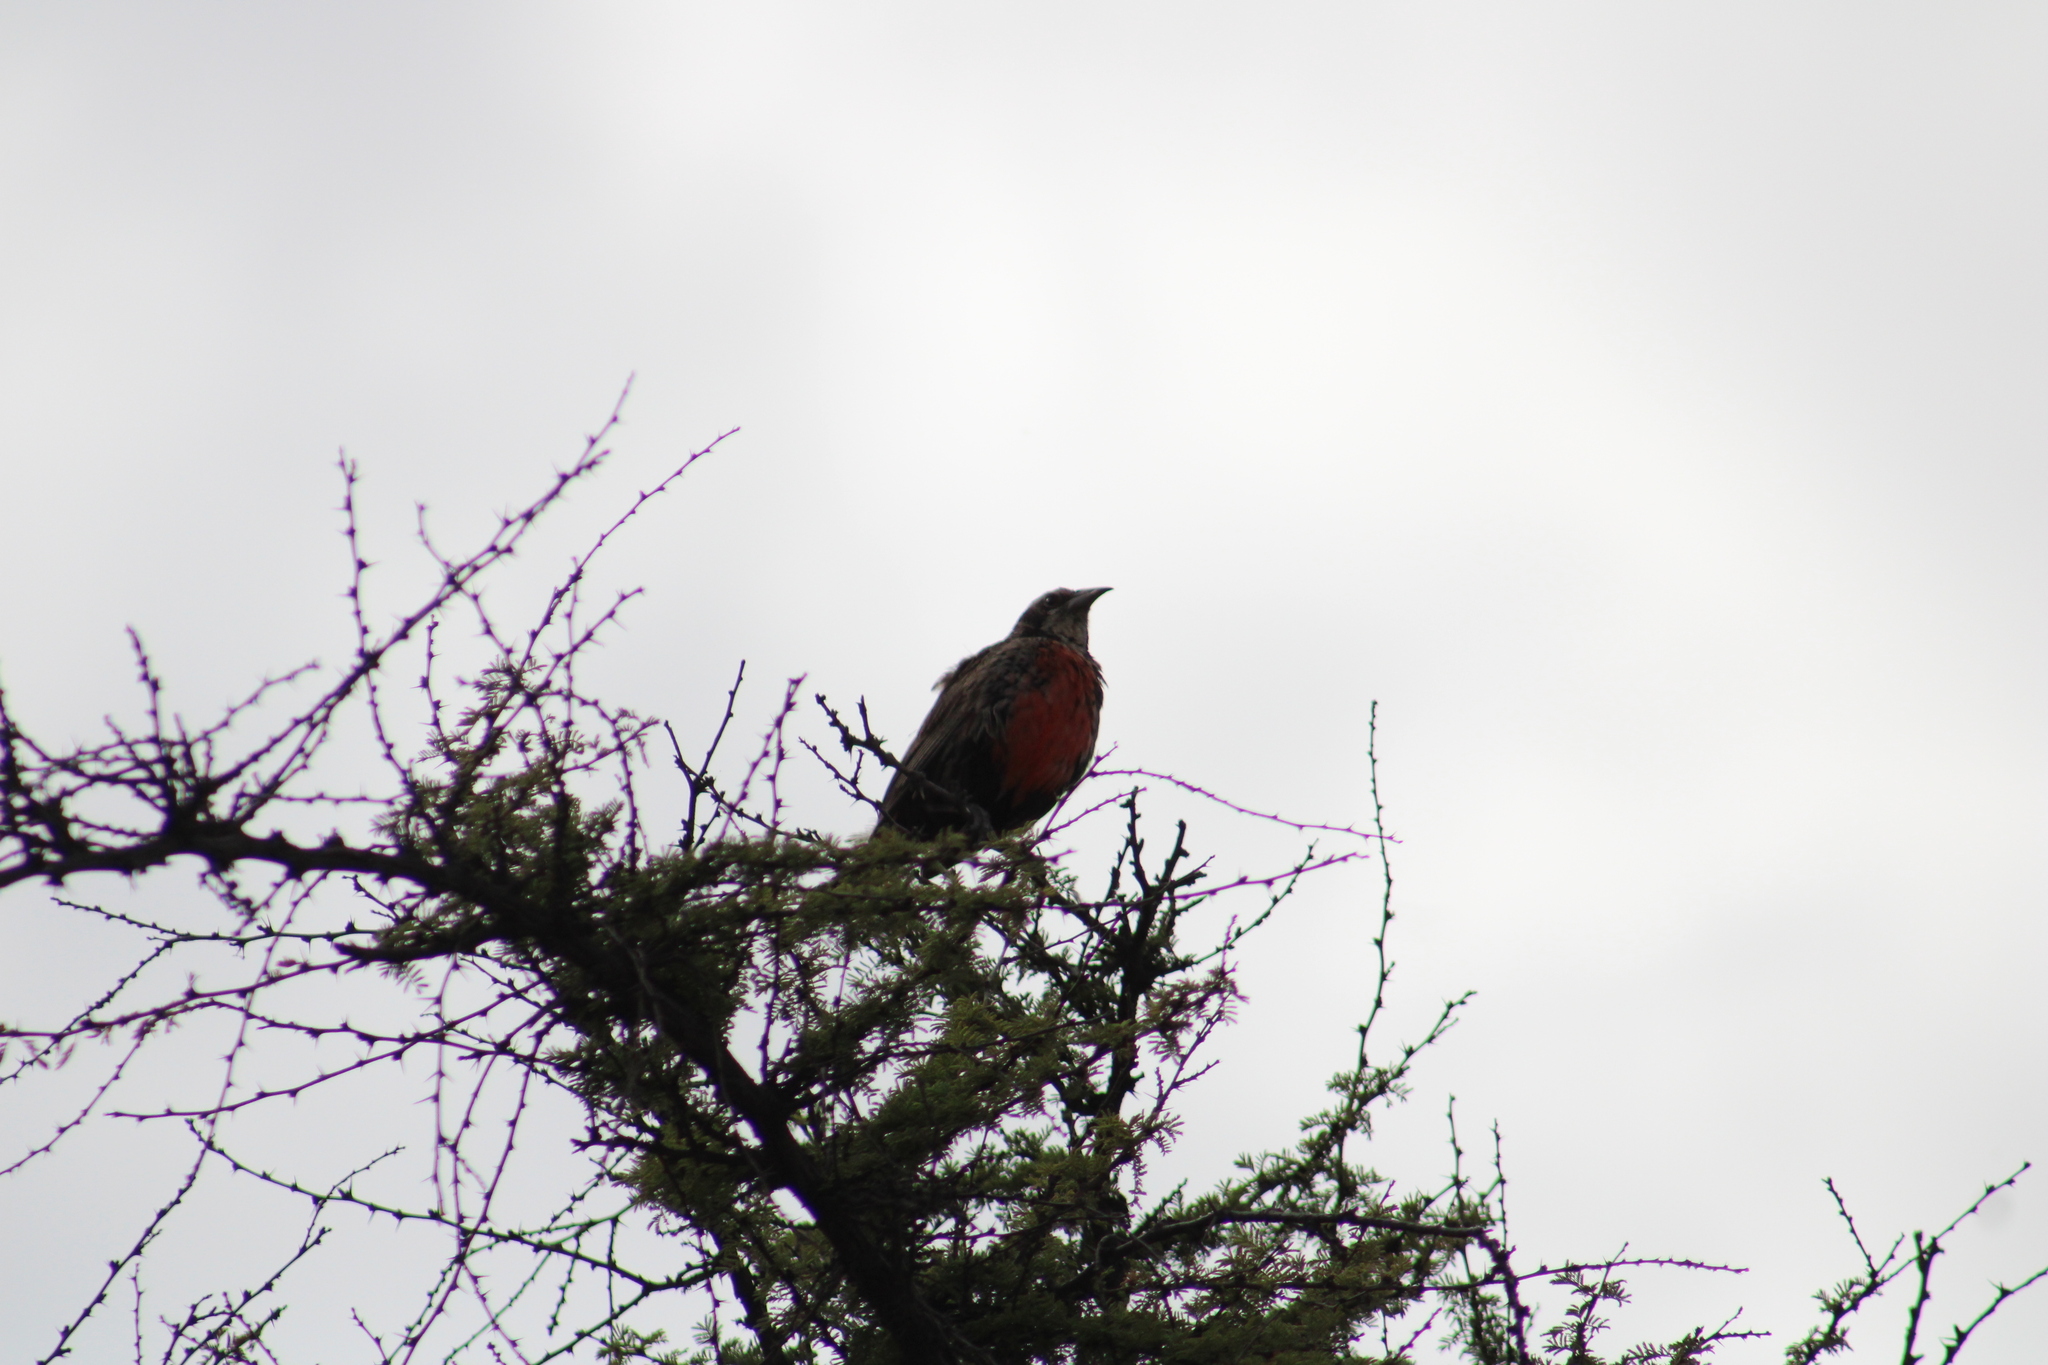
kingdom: Animalia
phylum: Chordata
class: Aves
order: Passeriformes
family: Icteridae
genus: Sturnella
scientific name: Sturnella loyca
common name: Long-tailed meadowlark
